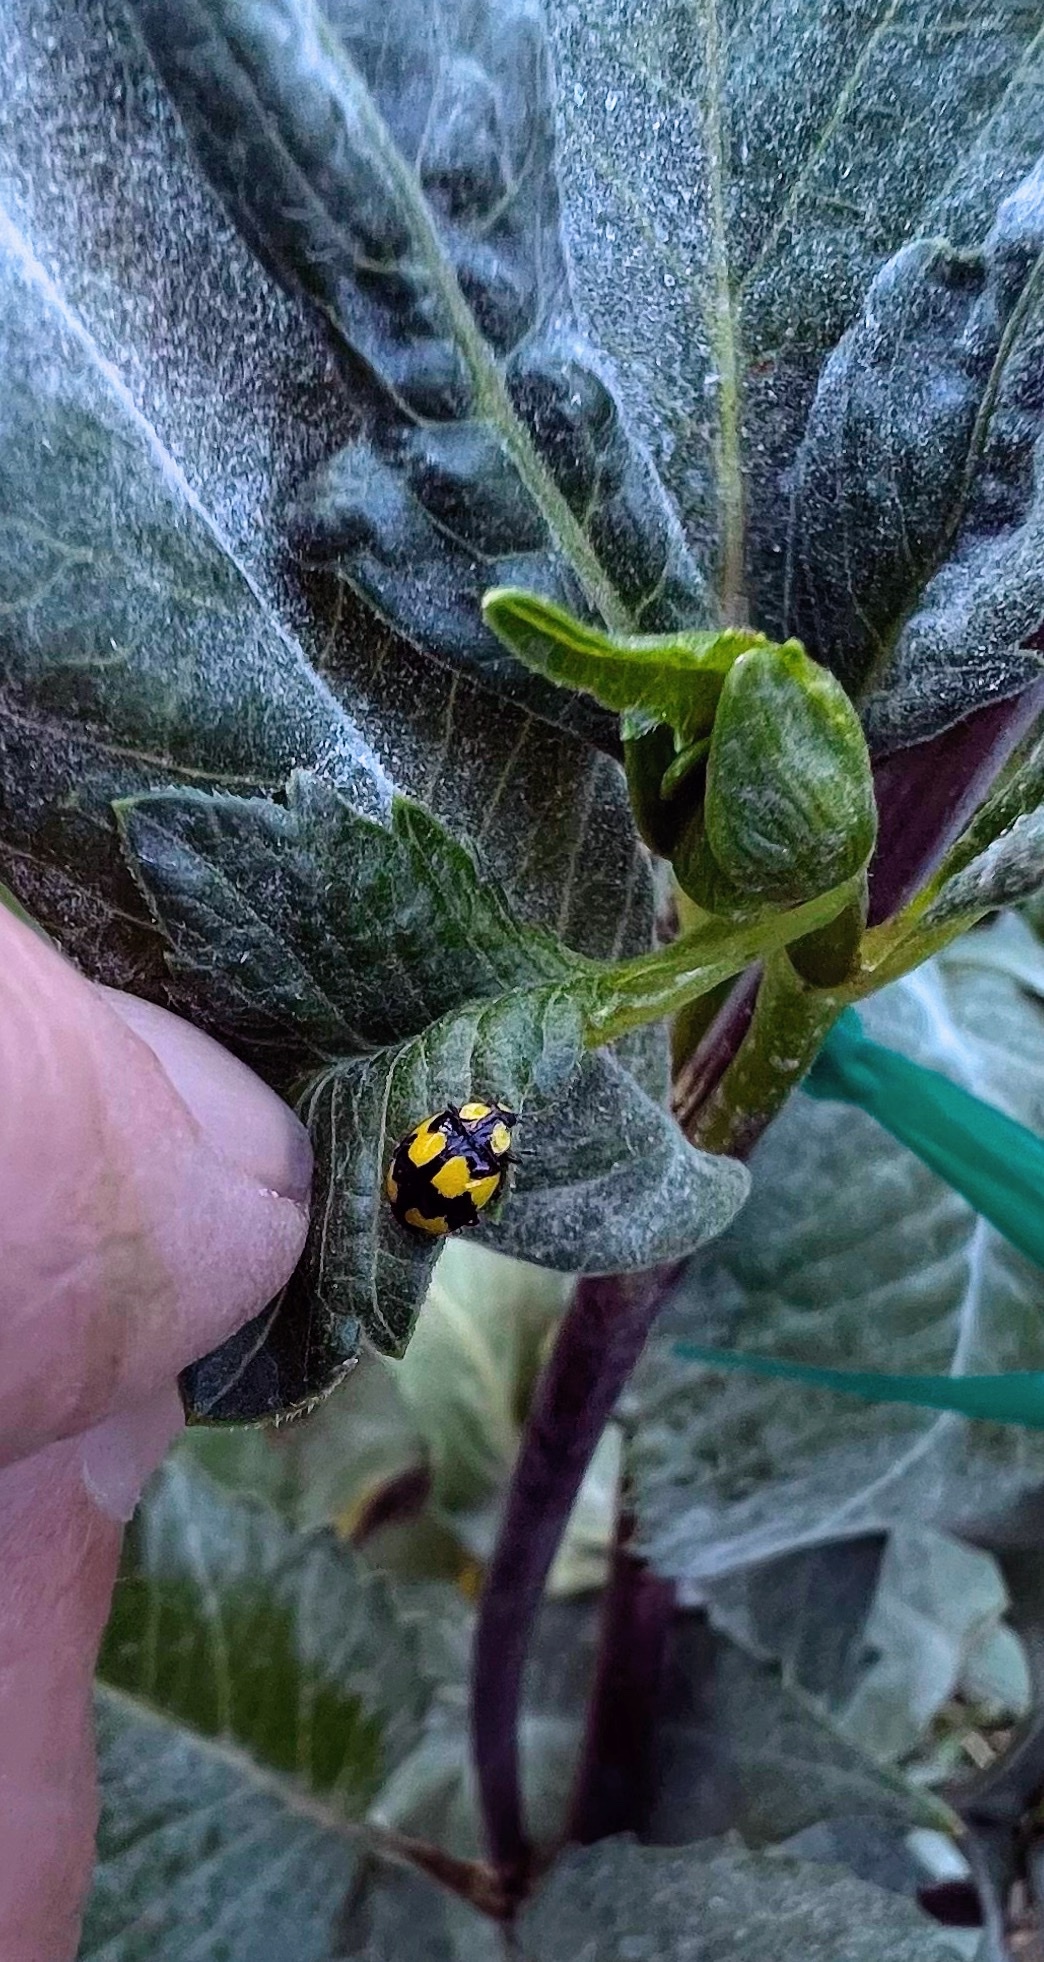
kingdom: Animalia
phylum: Arthropoda
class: Insecta
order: Coleoptera
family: Coccinellidae
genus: Illeis
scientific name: Illeis galbula
